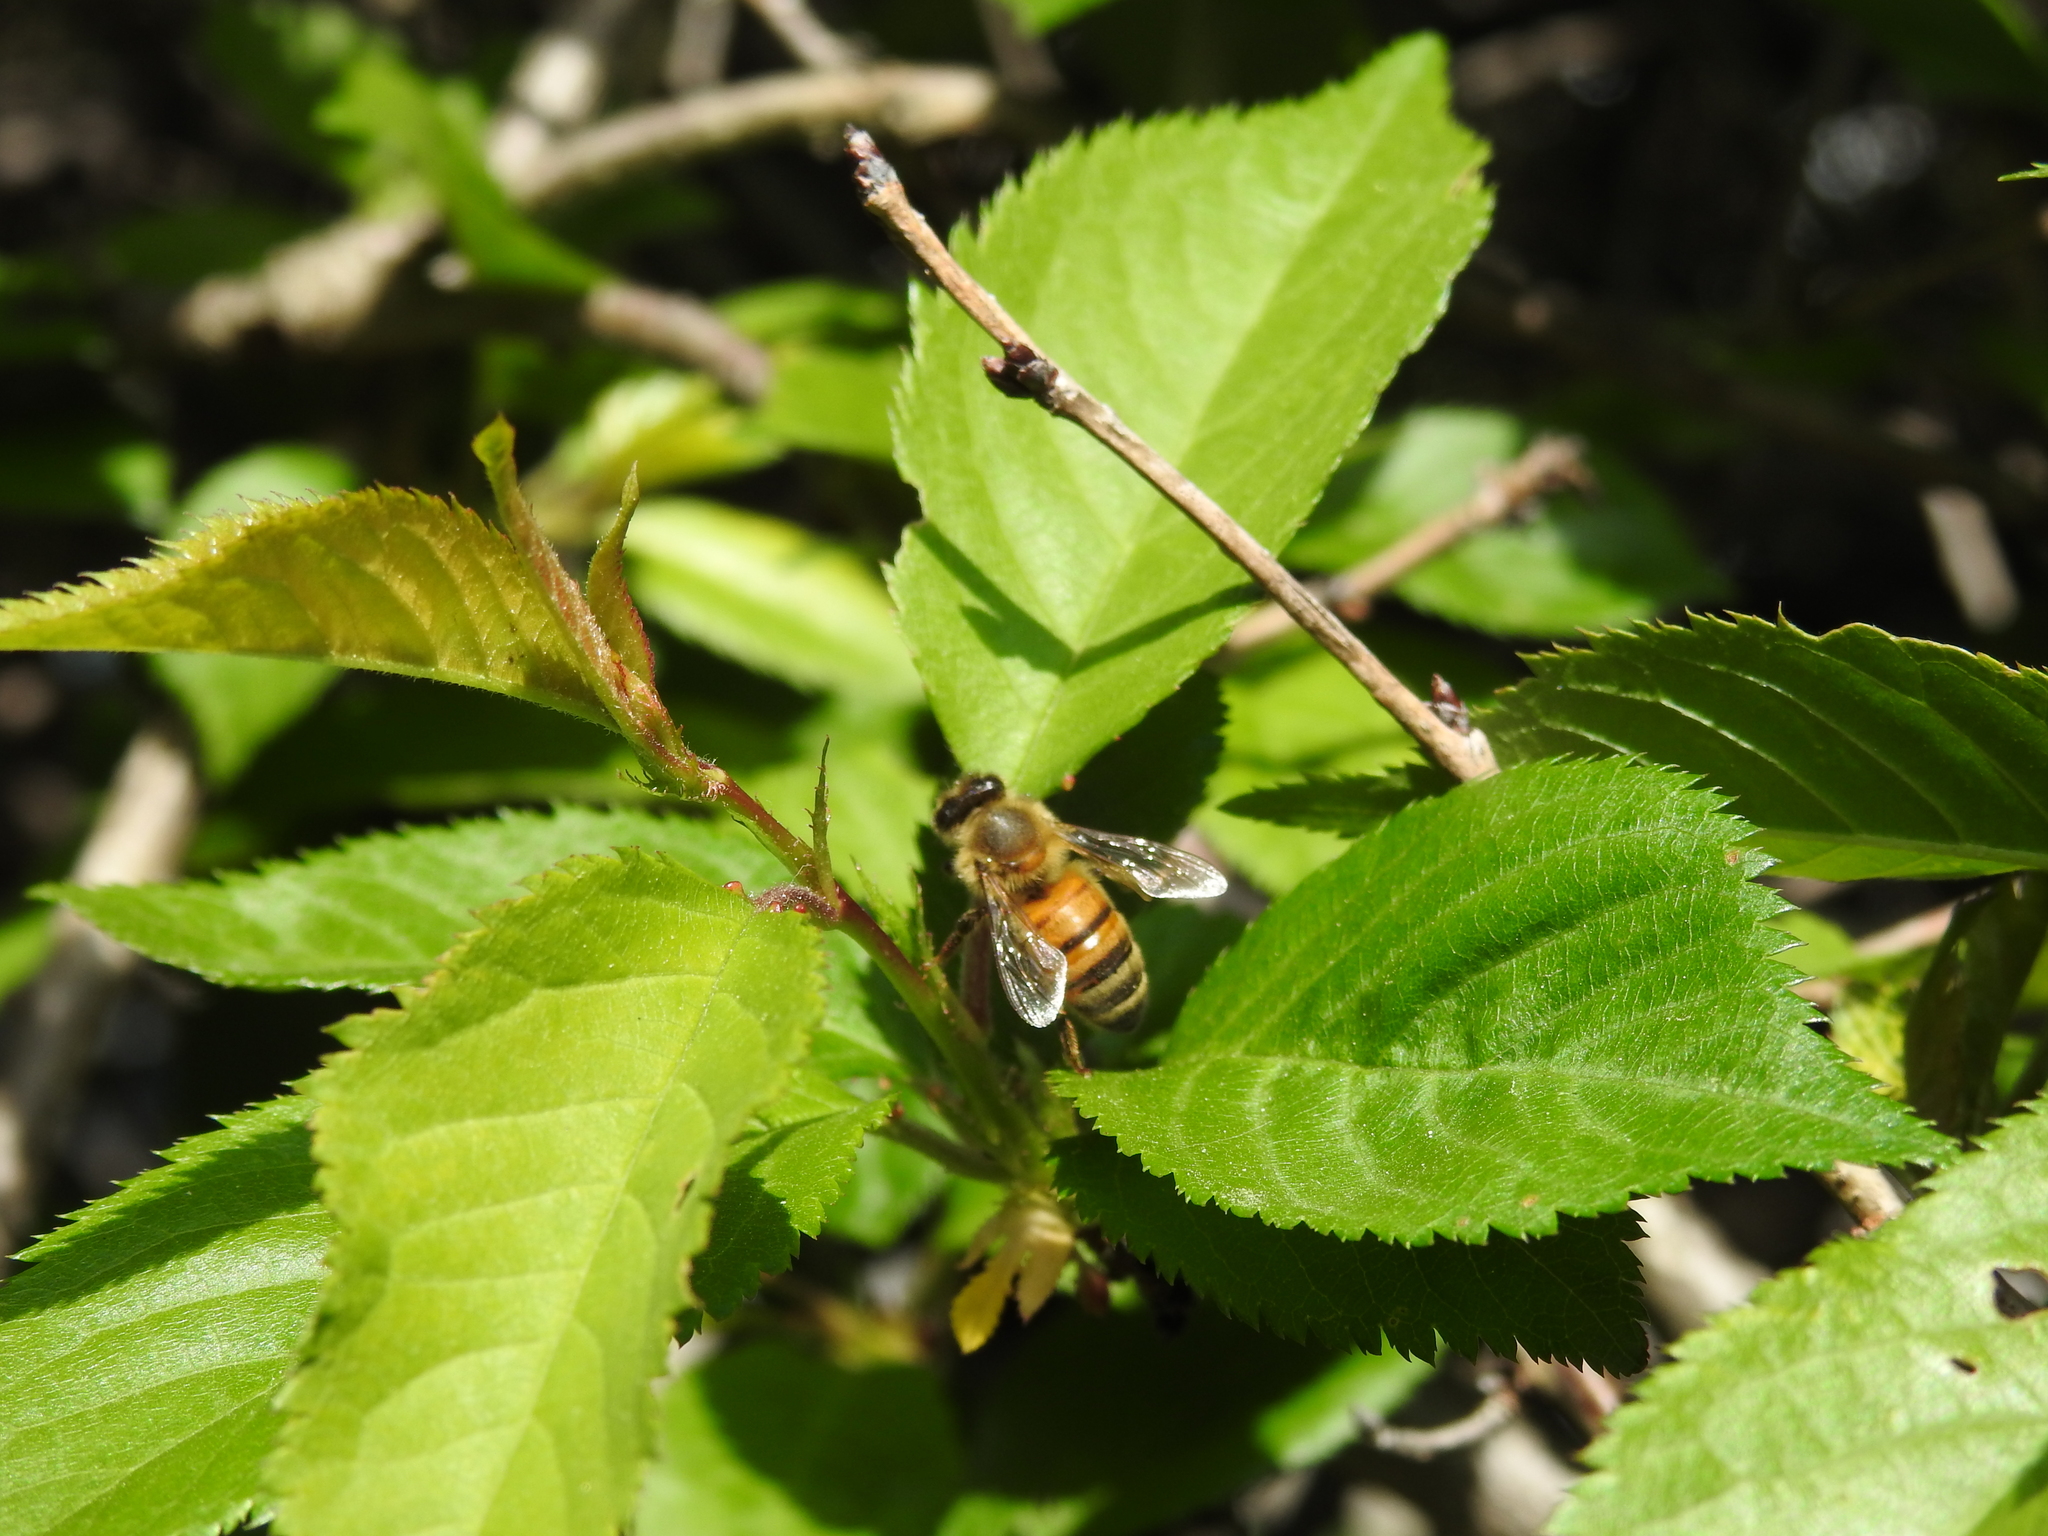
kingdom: Animalia
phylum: Arthropoda
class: Insecta
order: Hymenoptera
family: Apidae
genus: Apis
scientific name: Apis mellifera
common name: Honey bee
